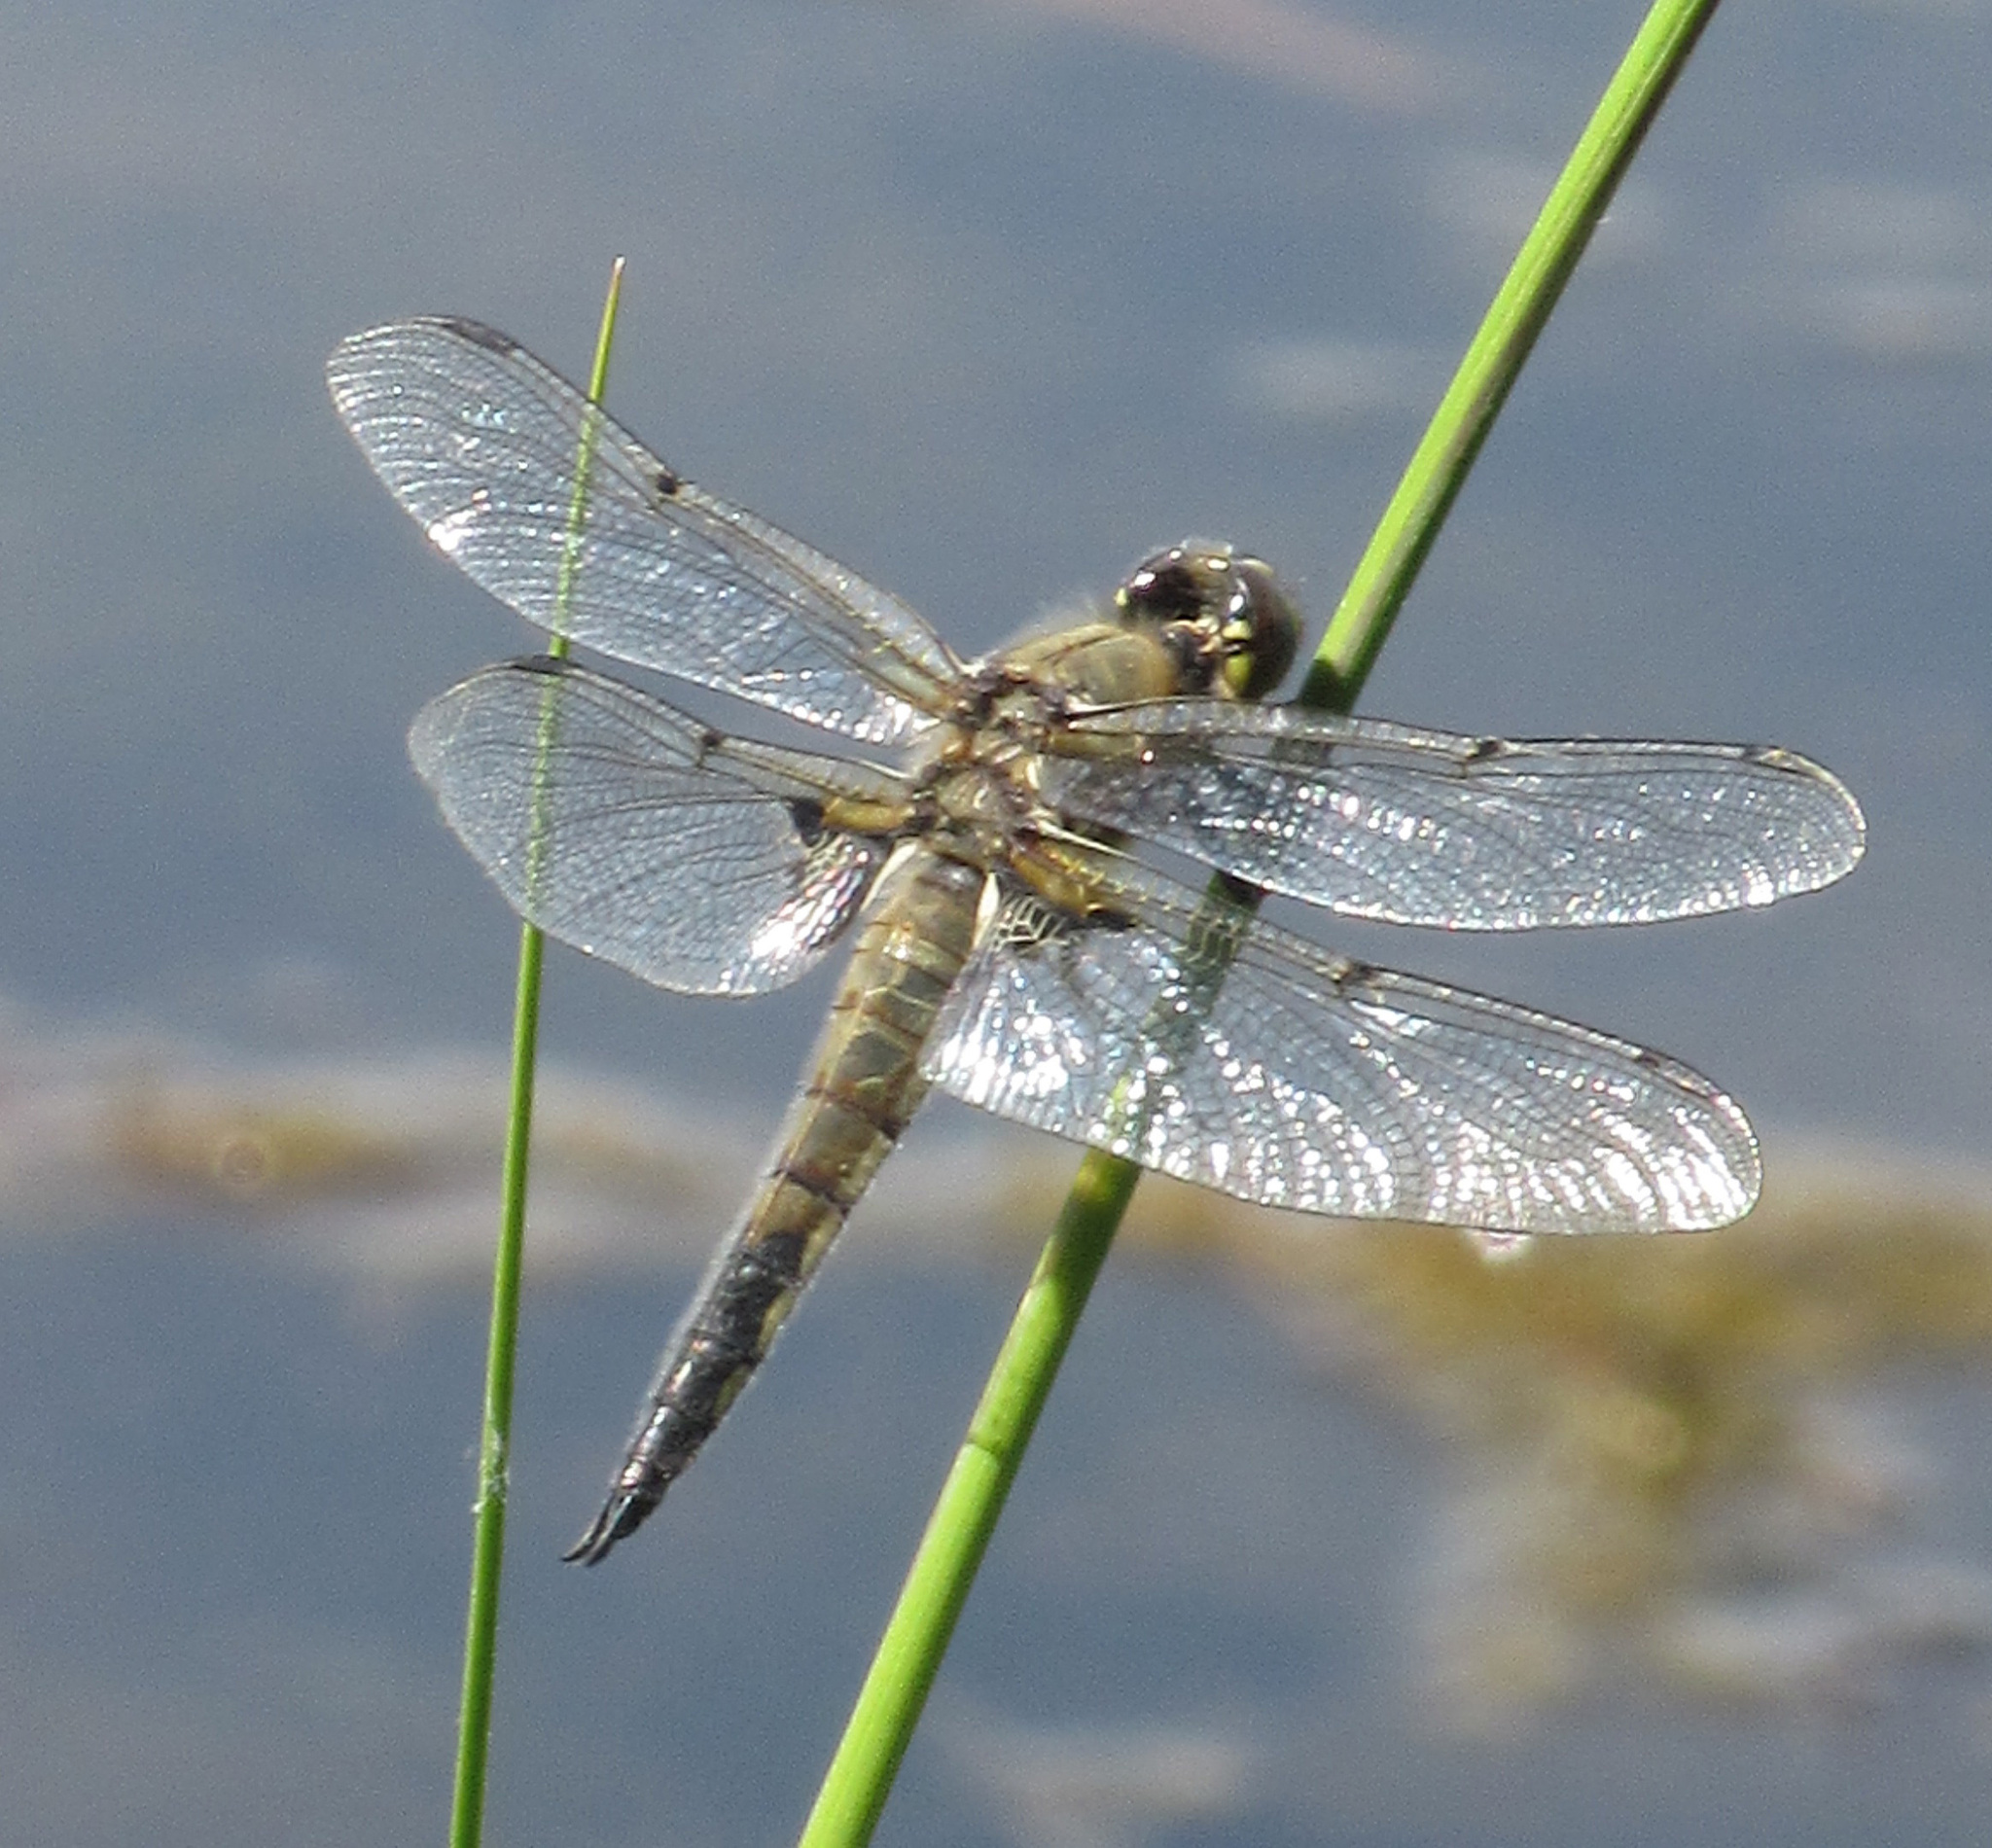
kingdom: Animalia
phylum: Arthropoda
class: Insecta
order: Odonata
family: Libellulidae
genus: Libellula
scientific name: Libellula quadrimaculata
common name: Four-spotted chaser
